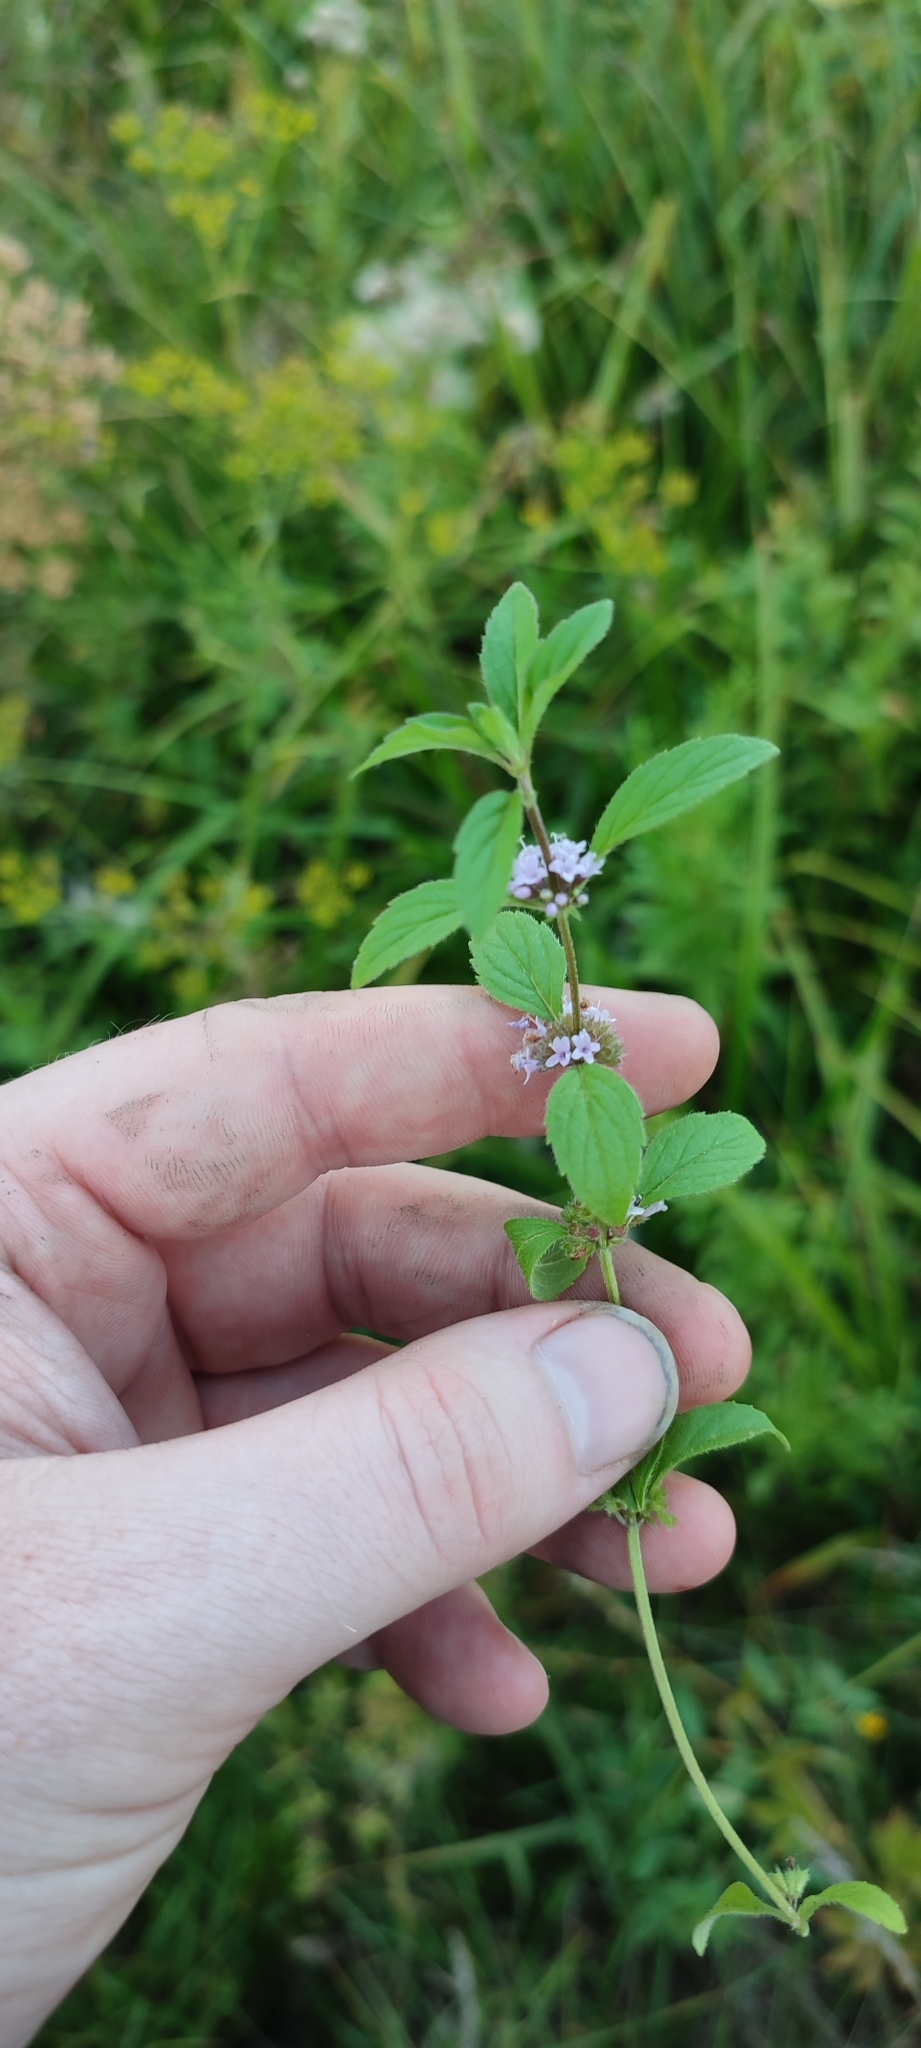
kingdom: Plantae
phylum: Tracheophyta
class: Magnoliopsida
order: Lamiales
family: Lamiaceae
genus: Mentha
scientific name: Mentha arvensis
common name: Corn mint
